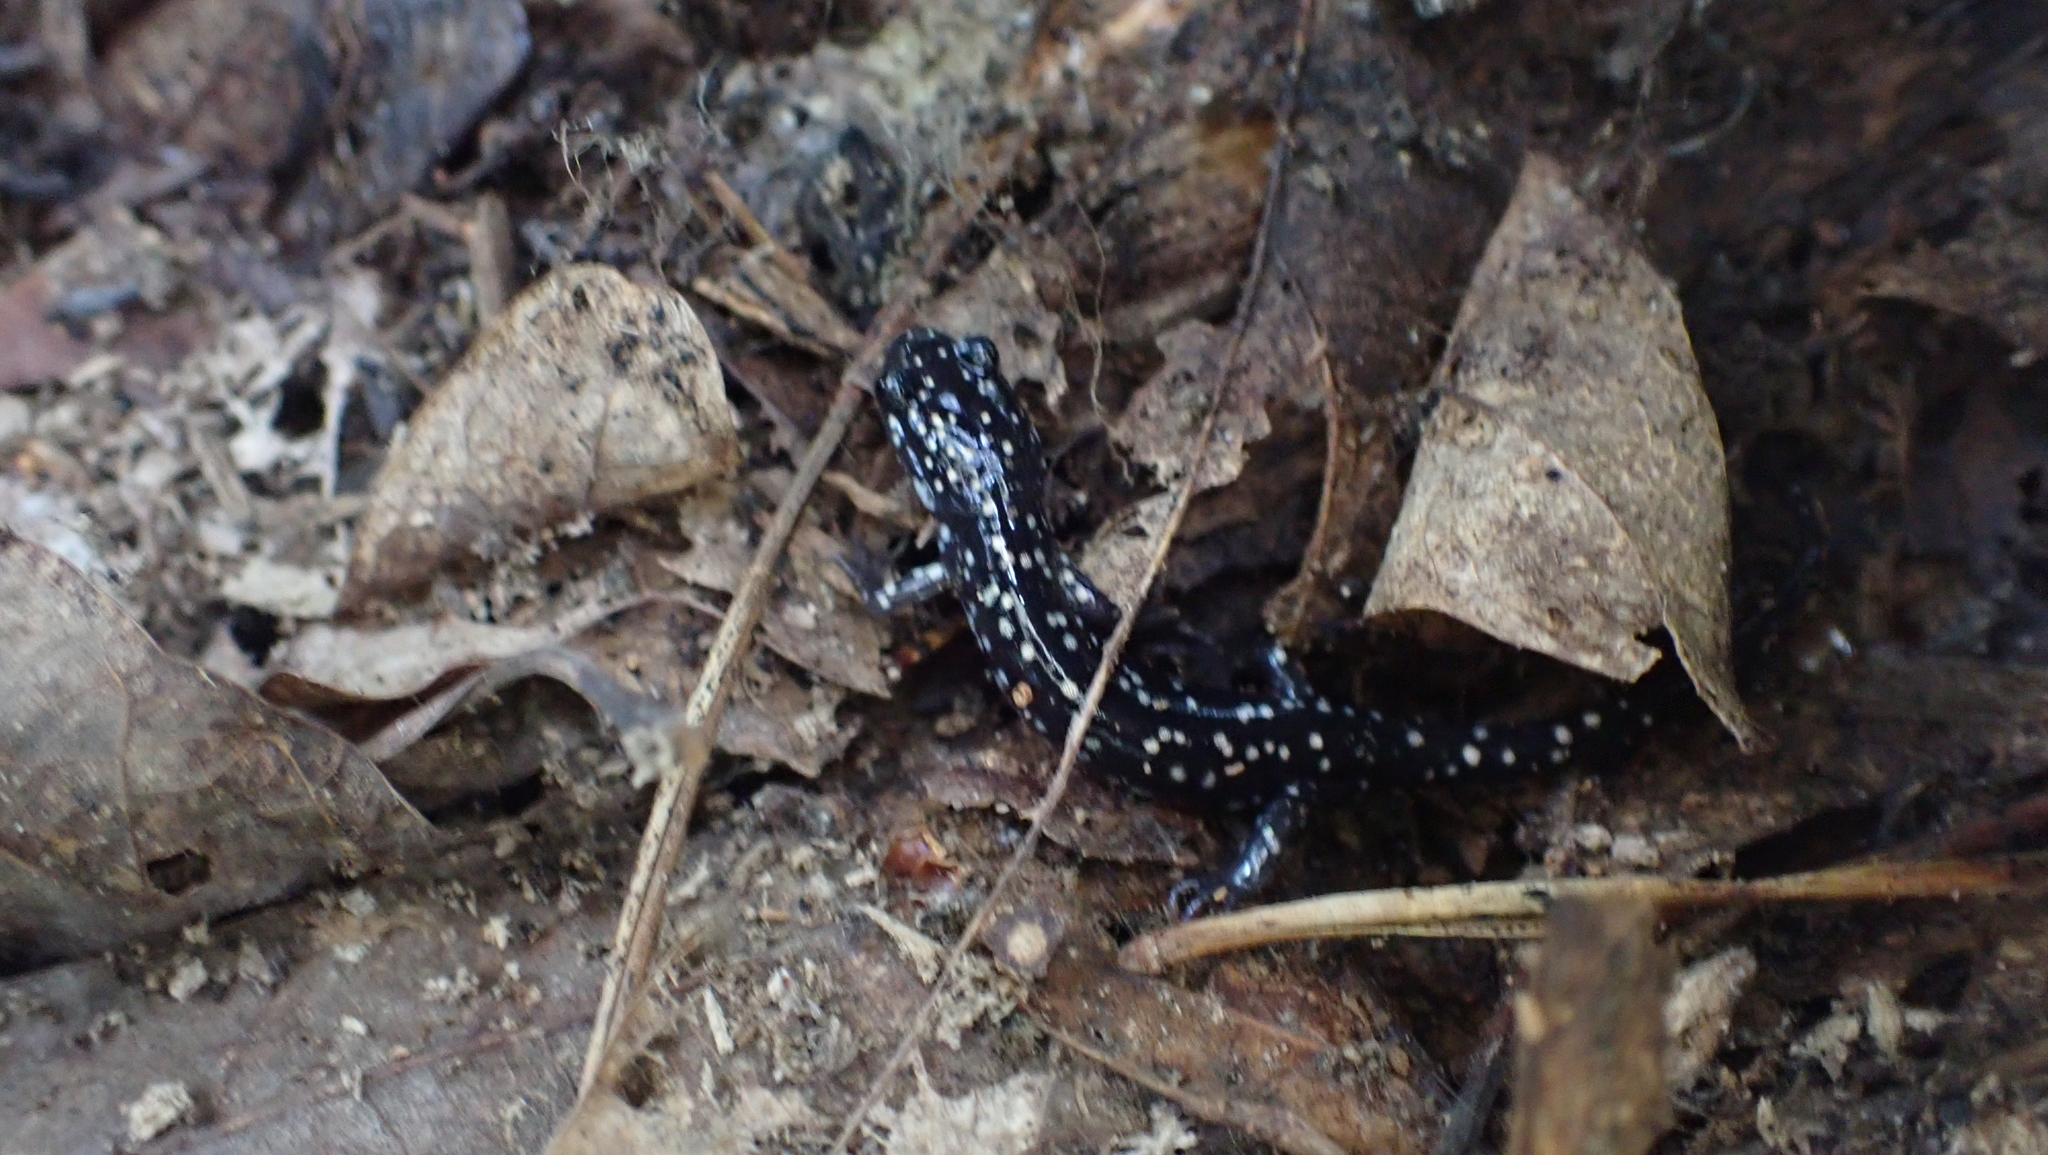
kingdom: Animalia
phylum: Chordata
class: Amphibia
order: Caudata
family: Plethodontidae
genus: Plethodon
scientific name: Plethodon glutinosus
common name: Northern slimy salamander
